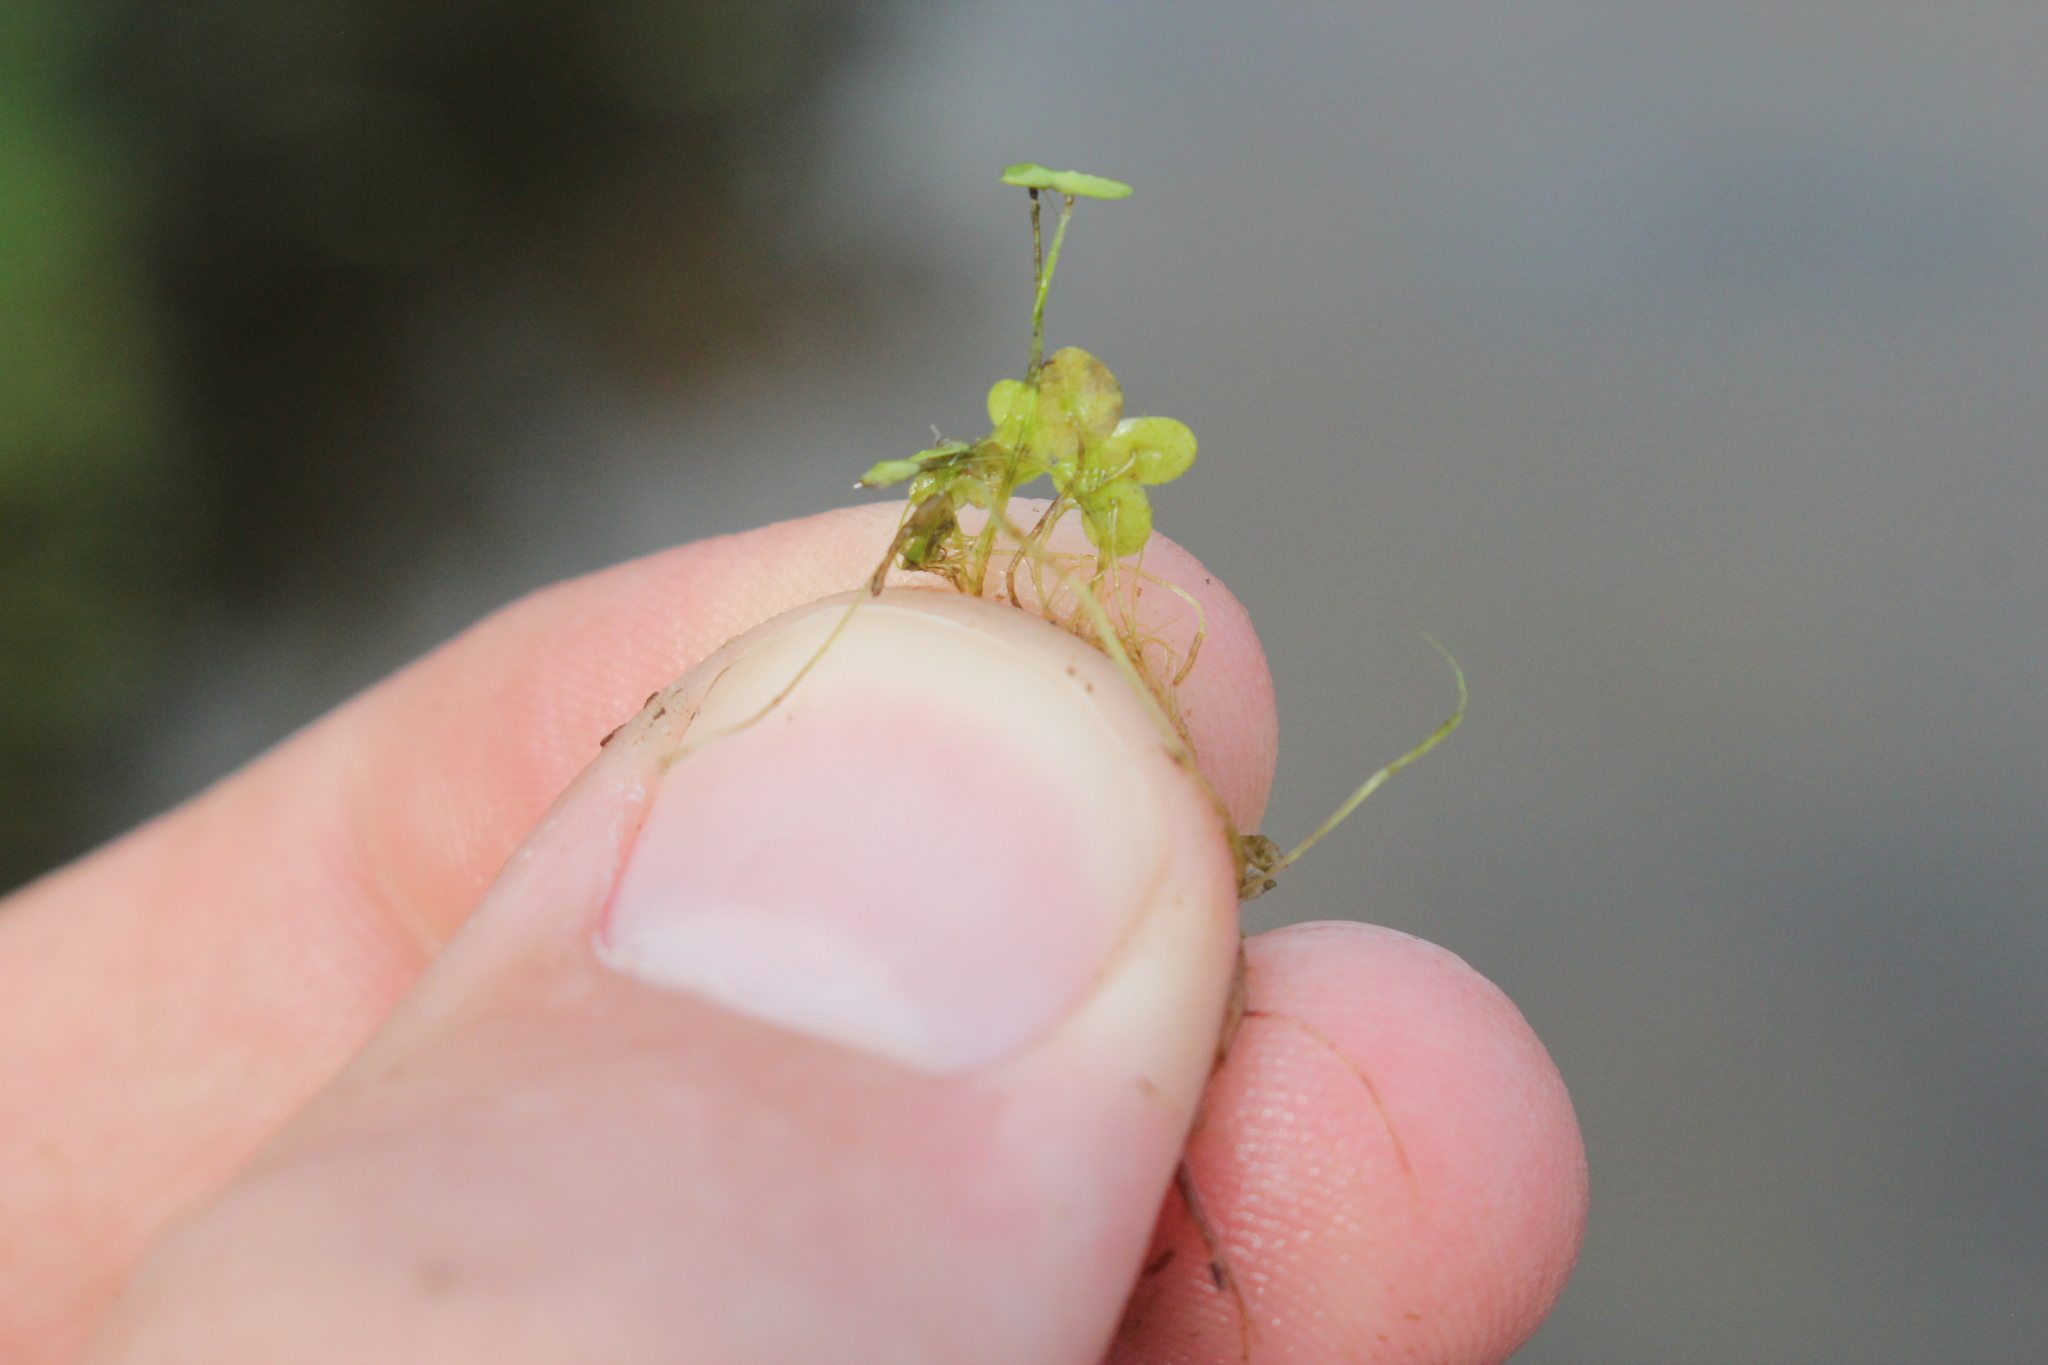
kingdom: Plantae
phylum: Tracheophyta
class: Liliopsida
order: Alismatales
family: Araceae
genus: Lemna
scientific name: Lemna minor
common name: Common duckweed
